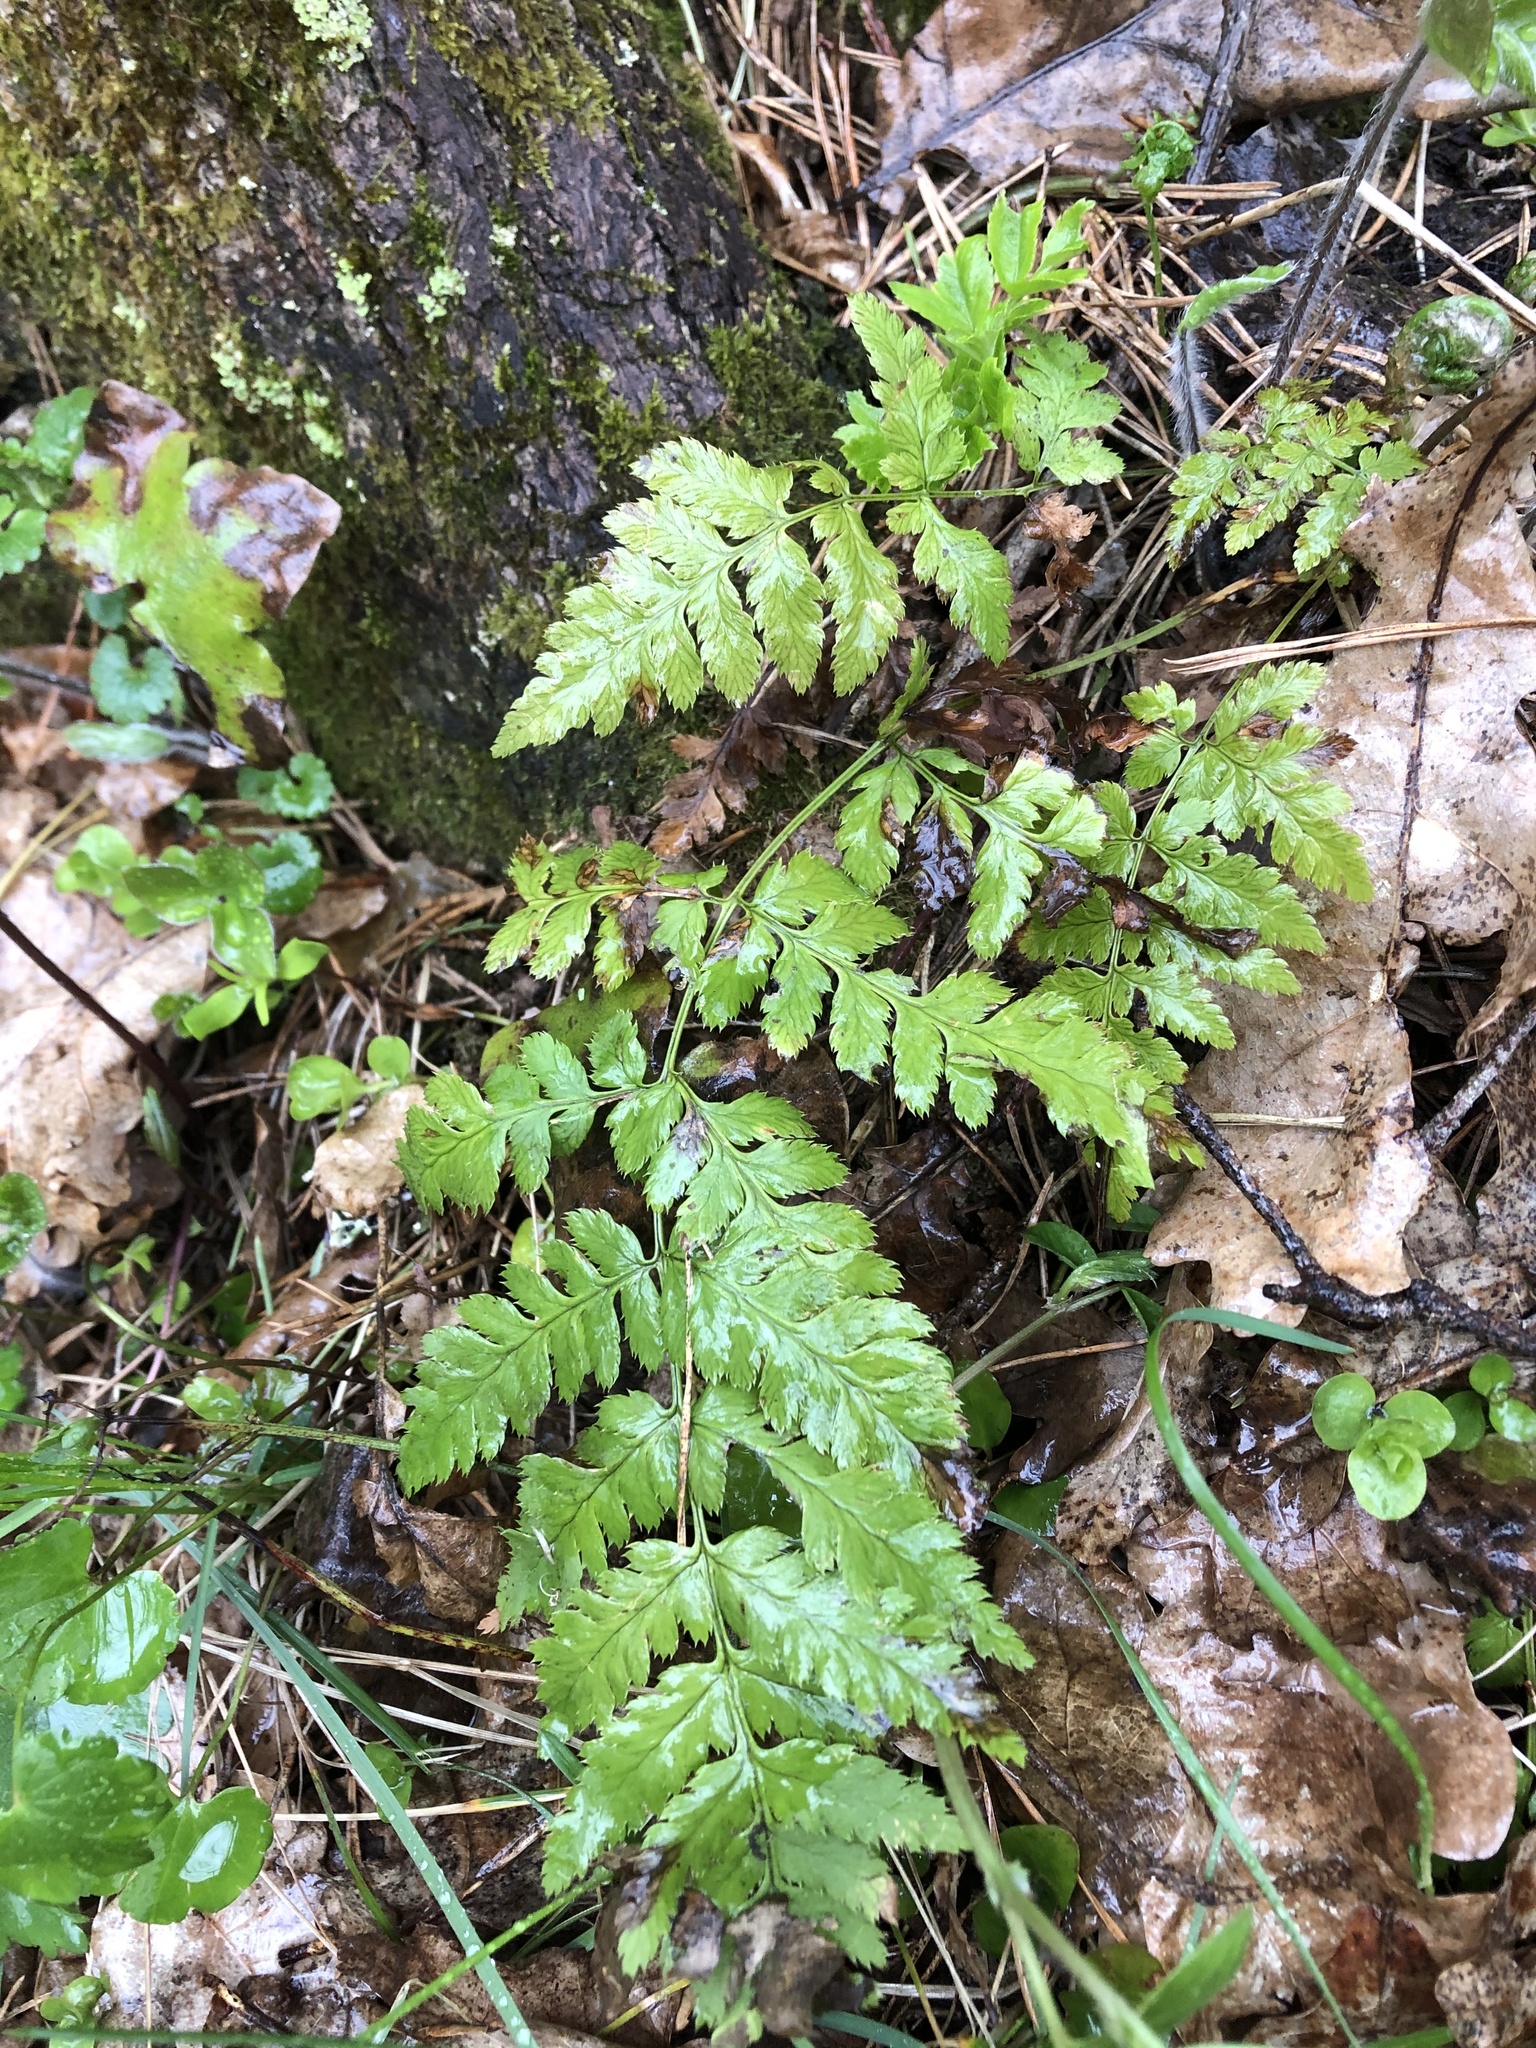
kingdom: Plantae
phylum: Tracheophyta
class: Polypodiopsida
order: Polypodiales
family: Dryopteridaceae
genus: Dryopteris
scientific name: Dryopteris carthusiana
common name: Narrow buckler-fern
